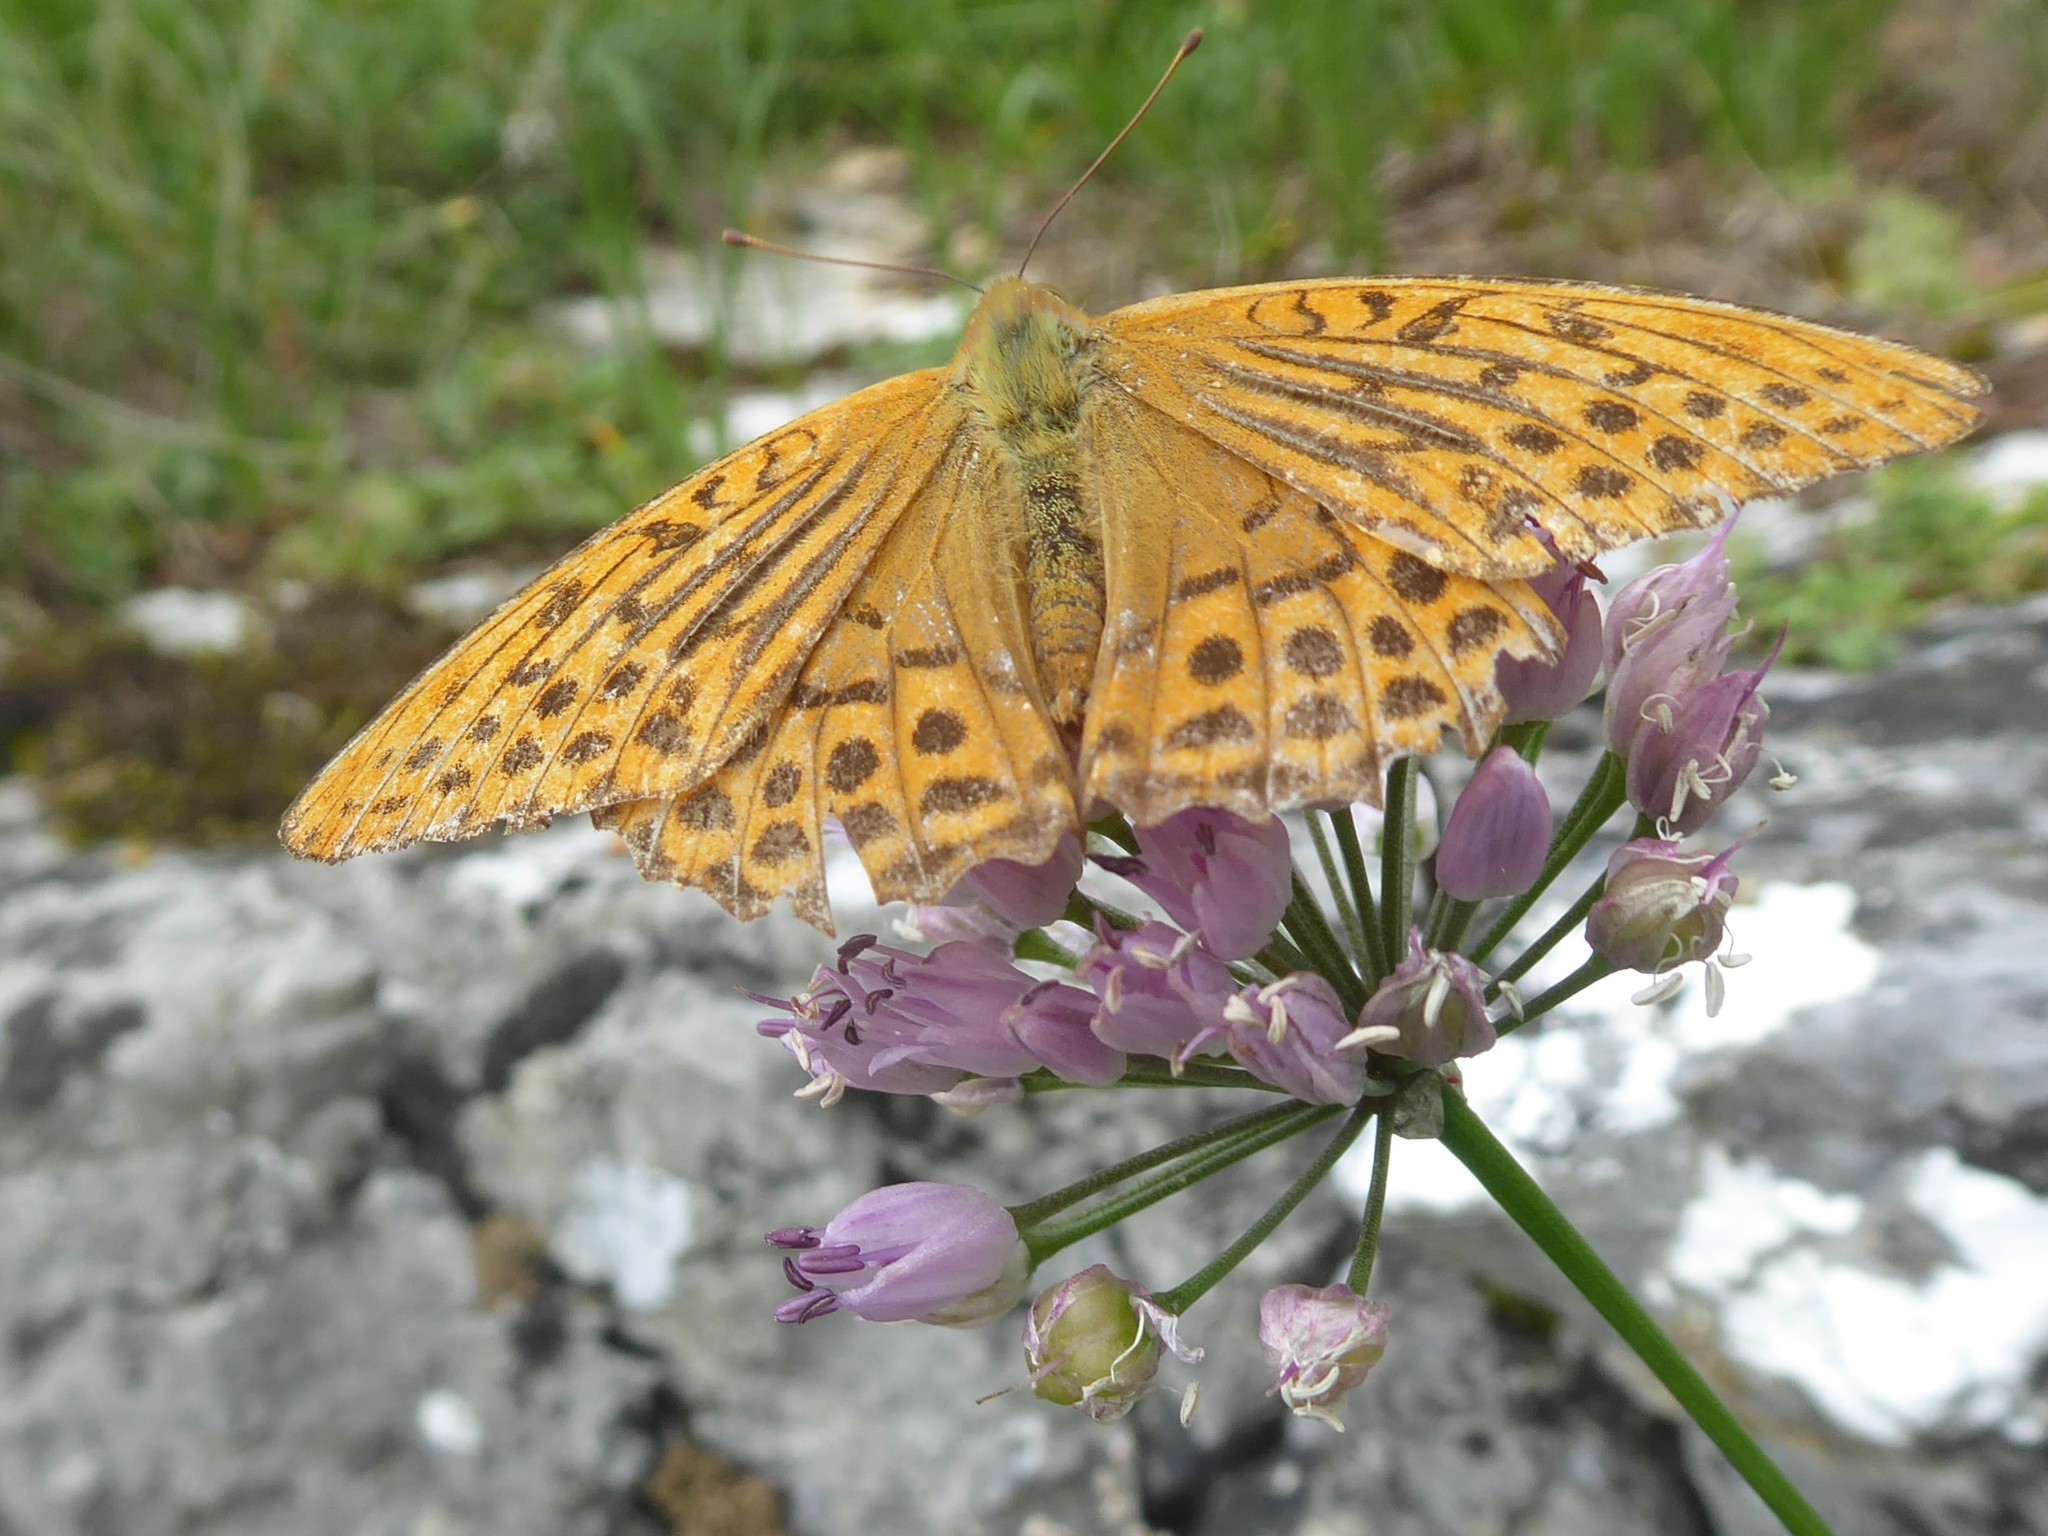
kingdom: Animalia
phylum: Arthropoda
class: Insecta
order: Lepidoptera
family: Nymphalidae
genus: Argynnis
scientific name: Argynnis paphia
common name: Silver-washed fritillary
